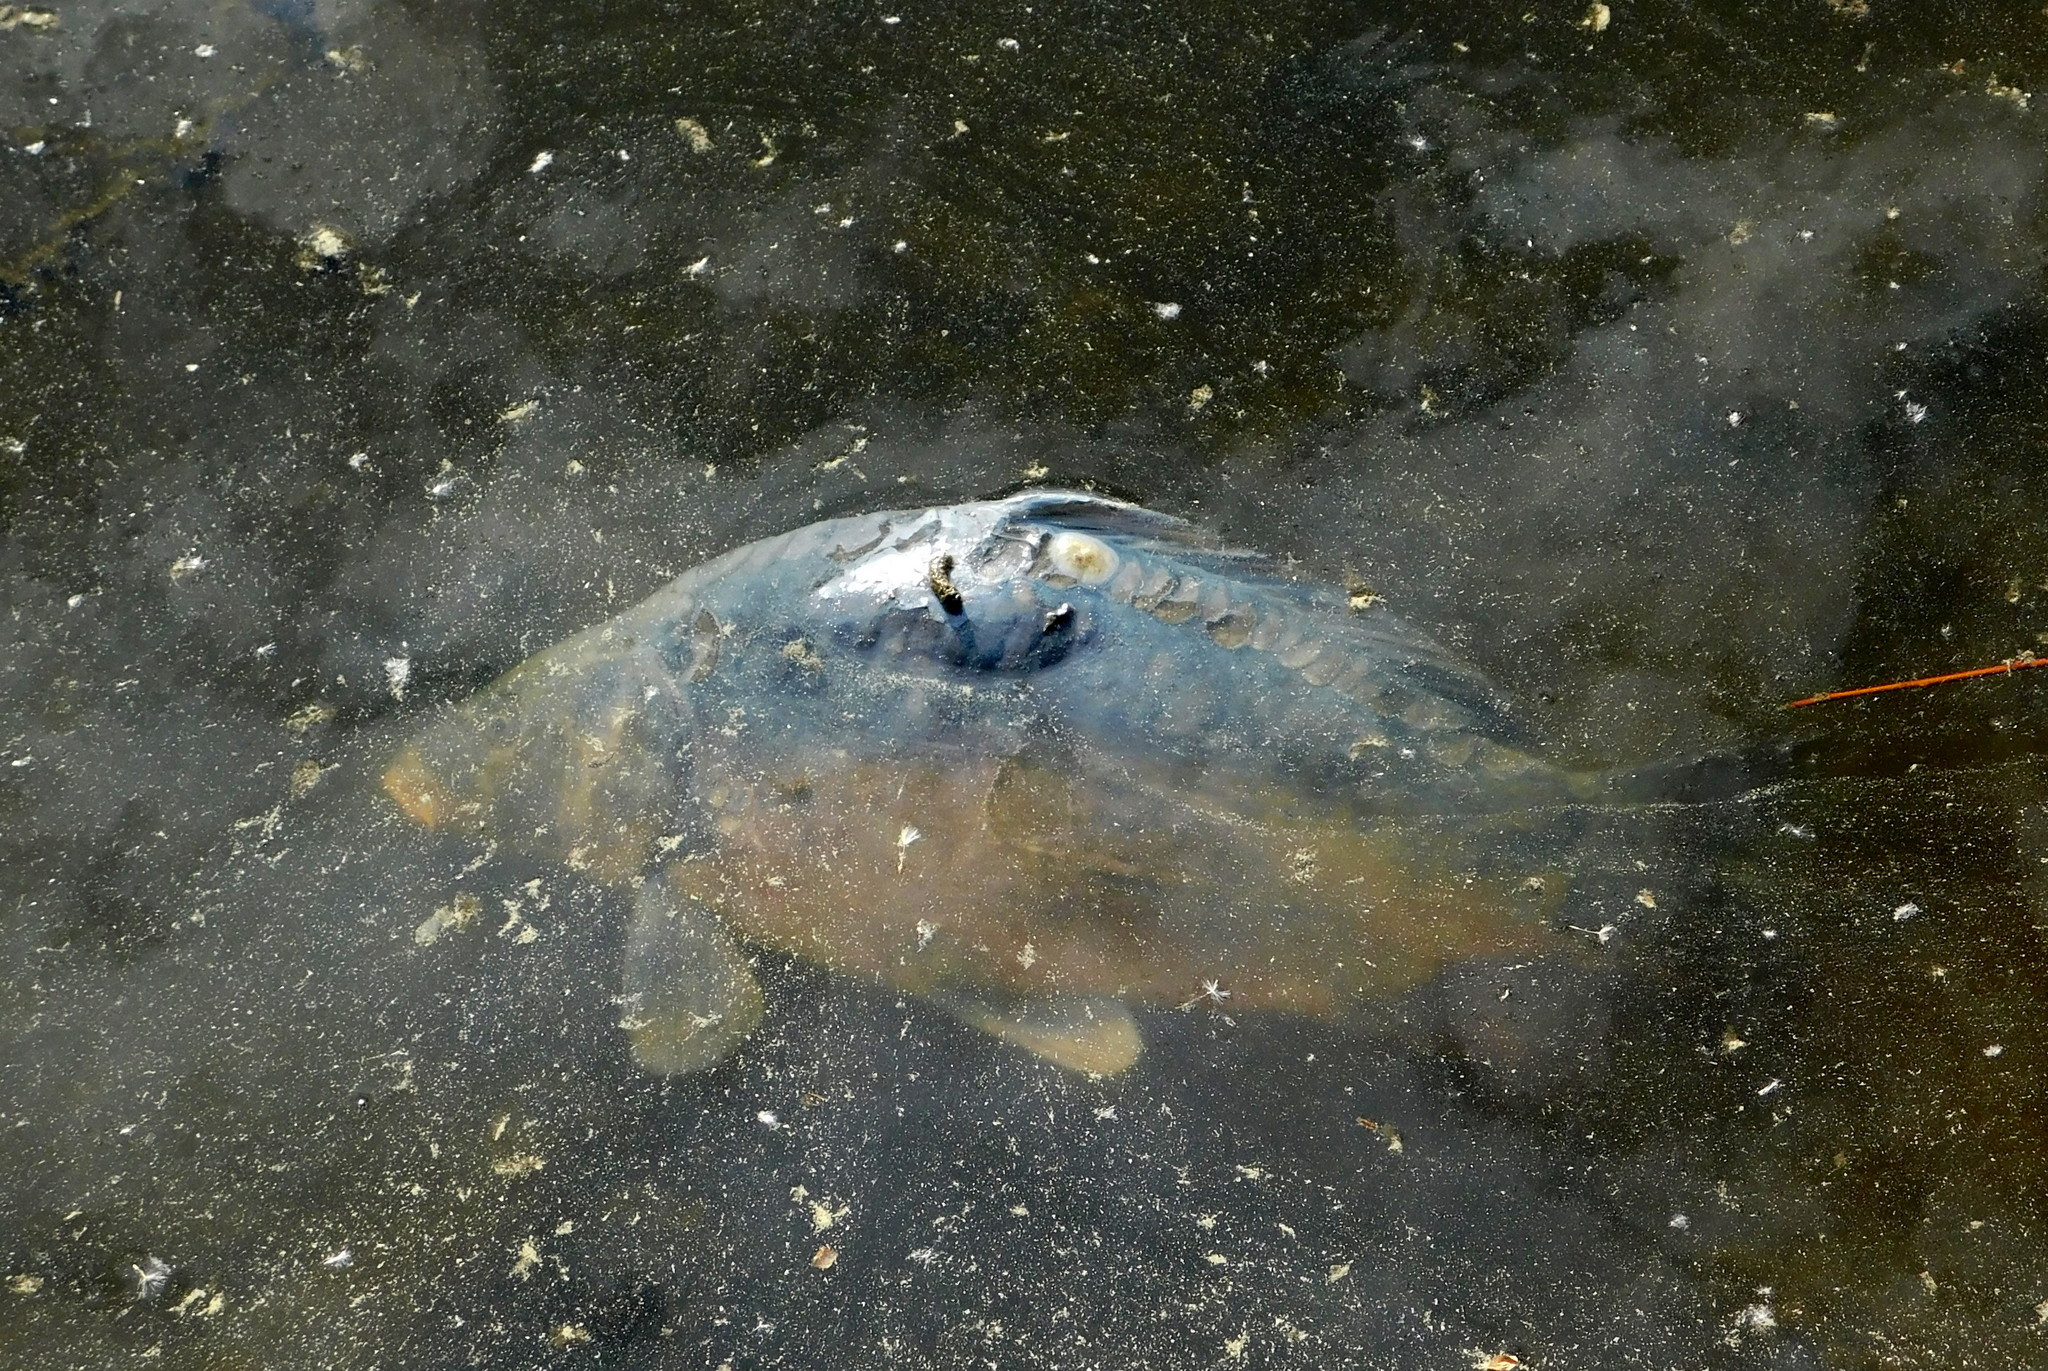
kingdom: Animalia
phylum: Chordata
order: Cypriniformes
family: Cyprinidae
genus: Cyprinus
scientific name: Cyprinus carpio
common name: Common carp
